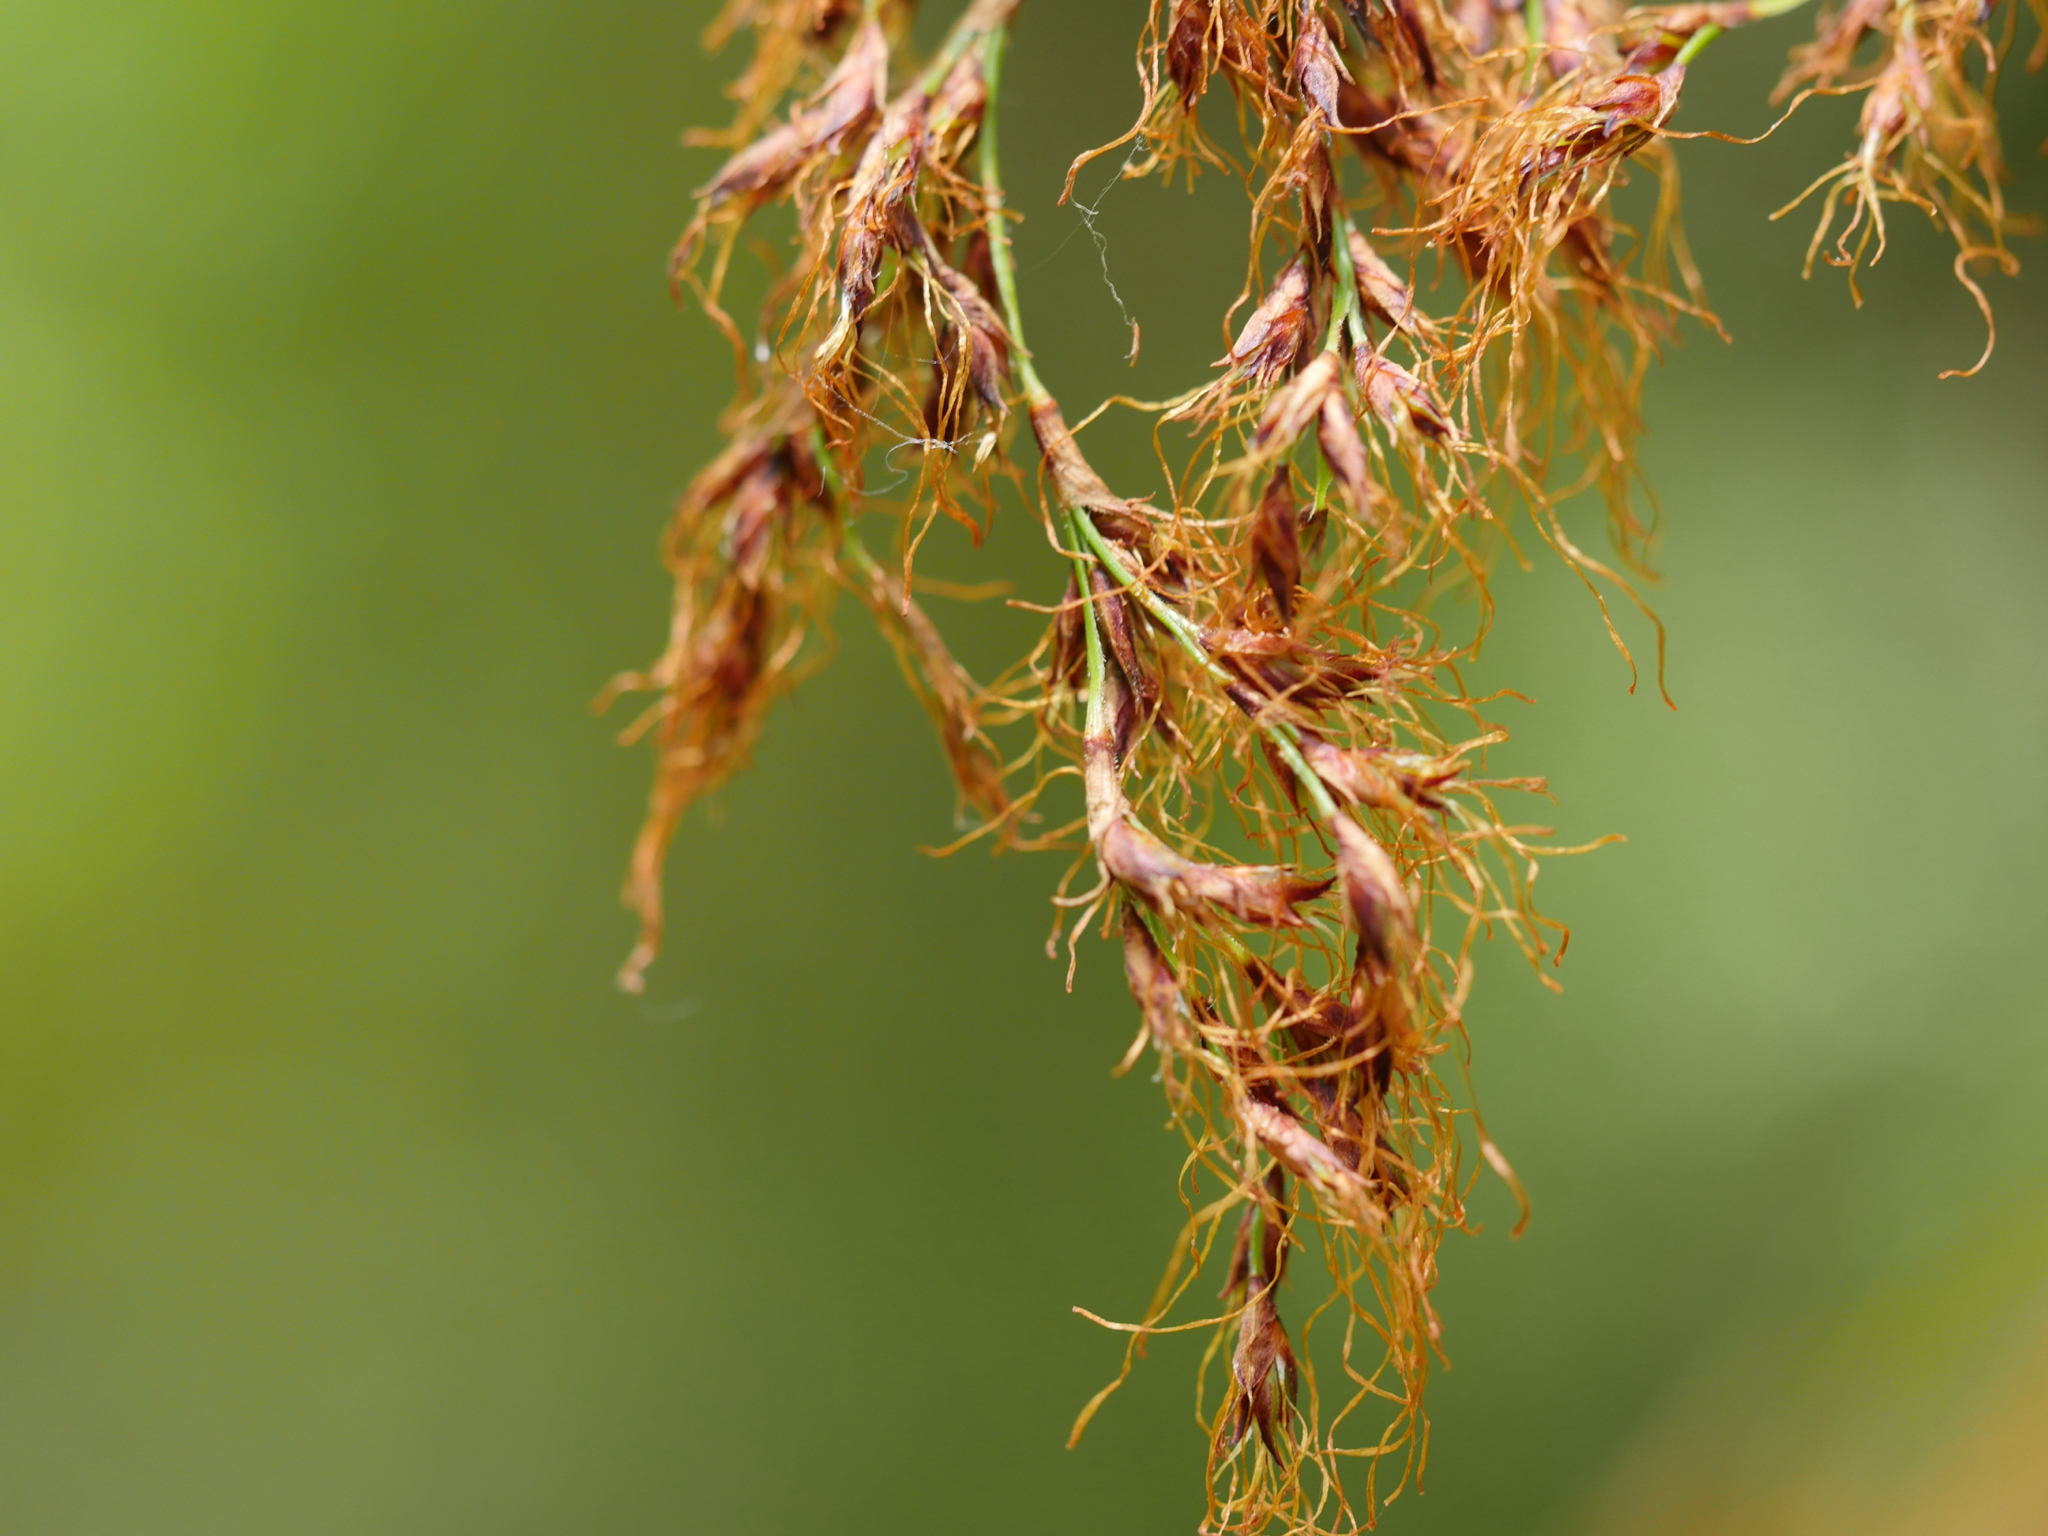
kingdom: Plantae
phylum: Tracheophyta
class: Liliopsida
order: Poales
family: Cyperaceae
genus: Machaerina
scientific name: Machaerina sinclairii
